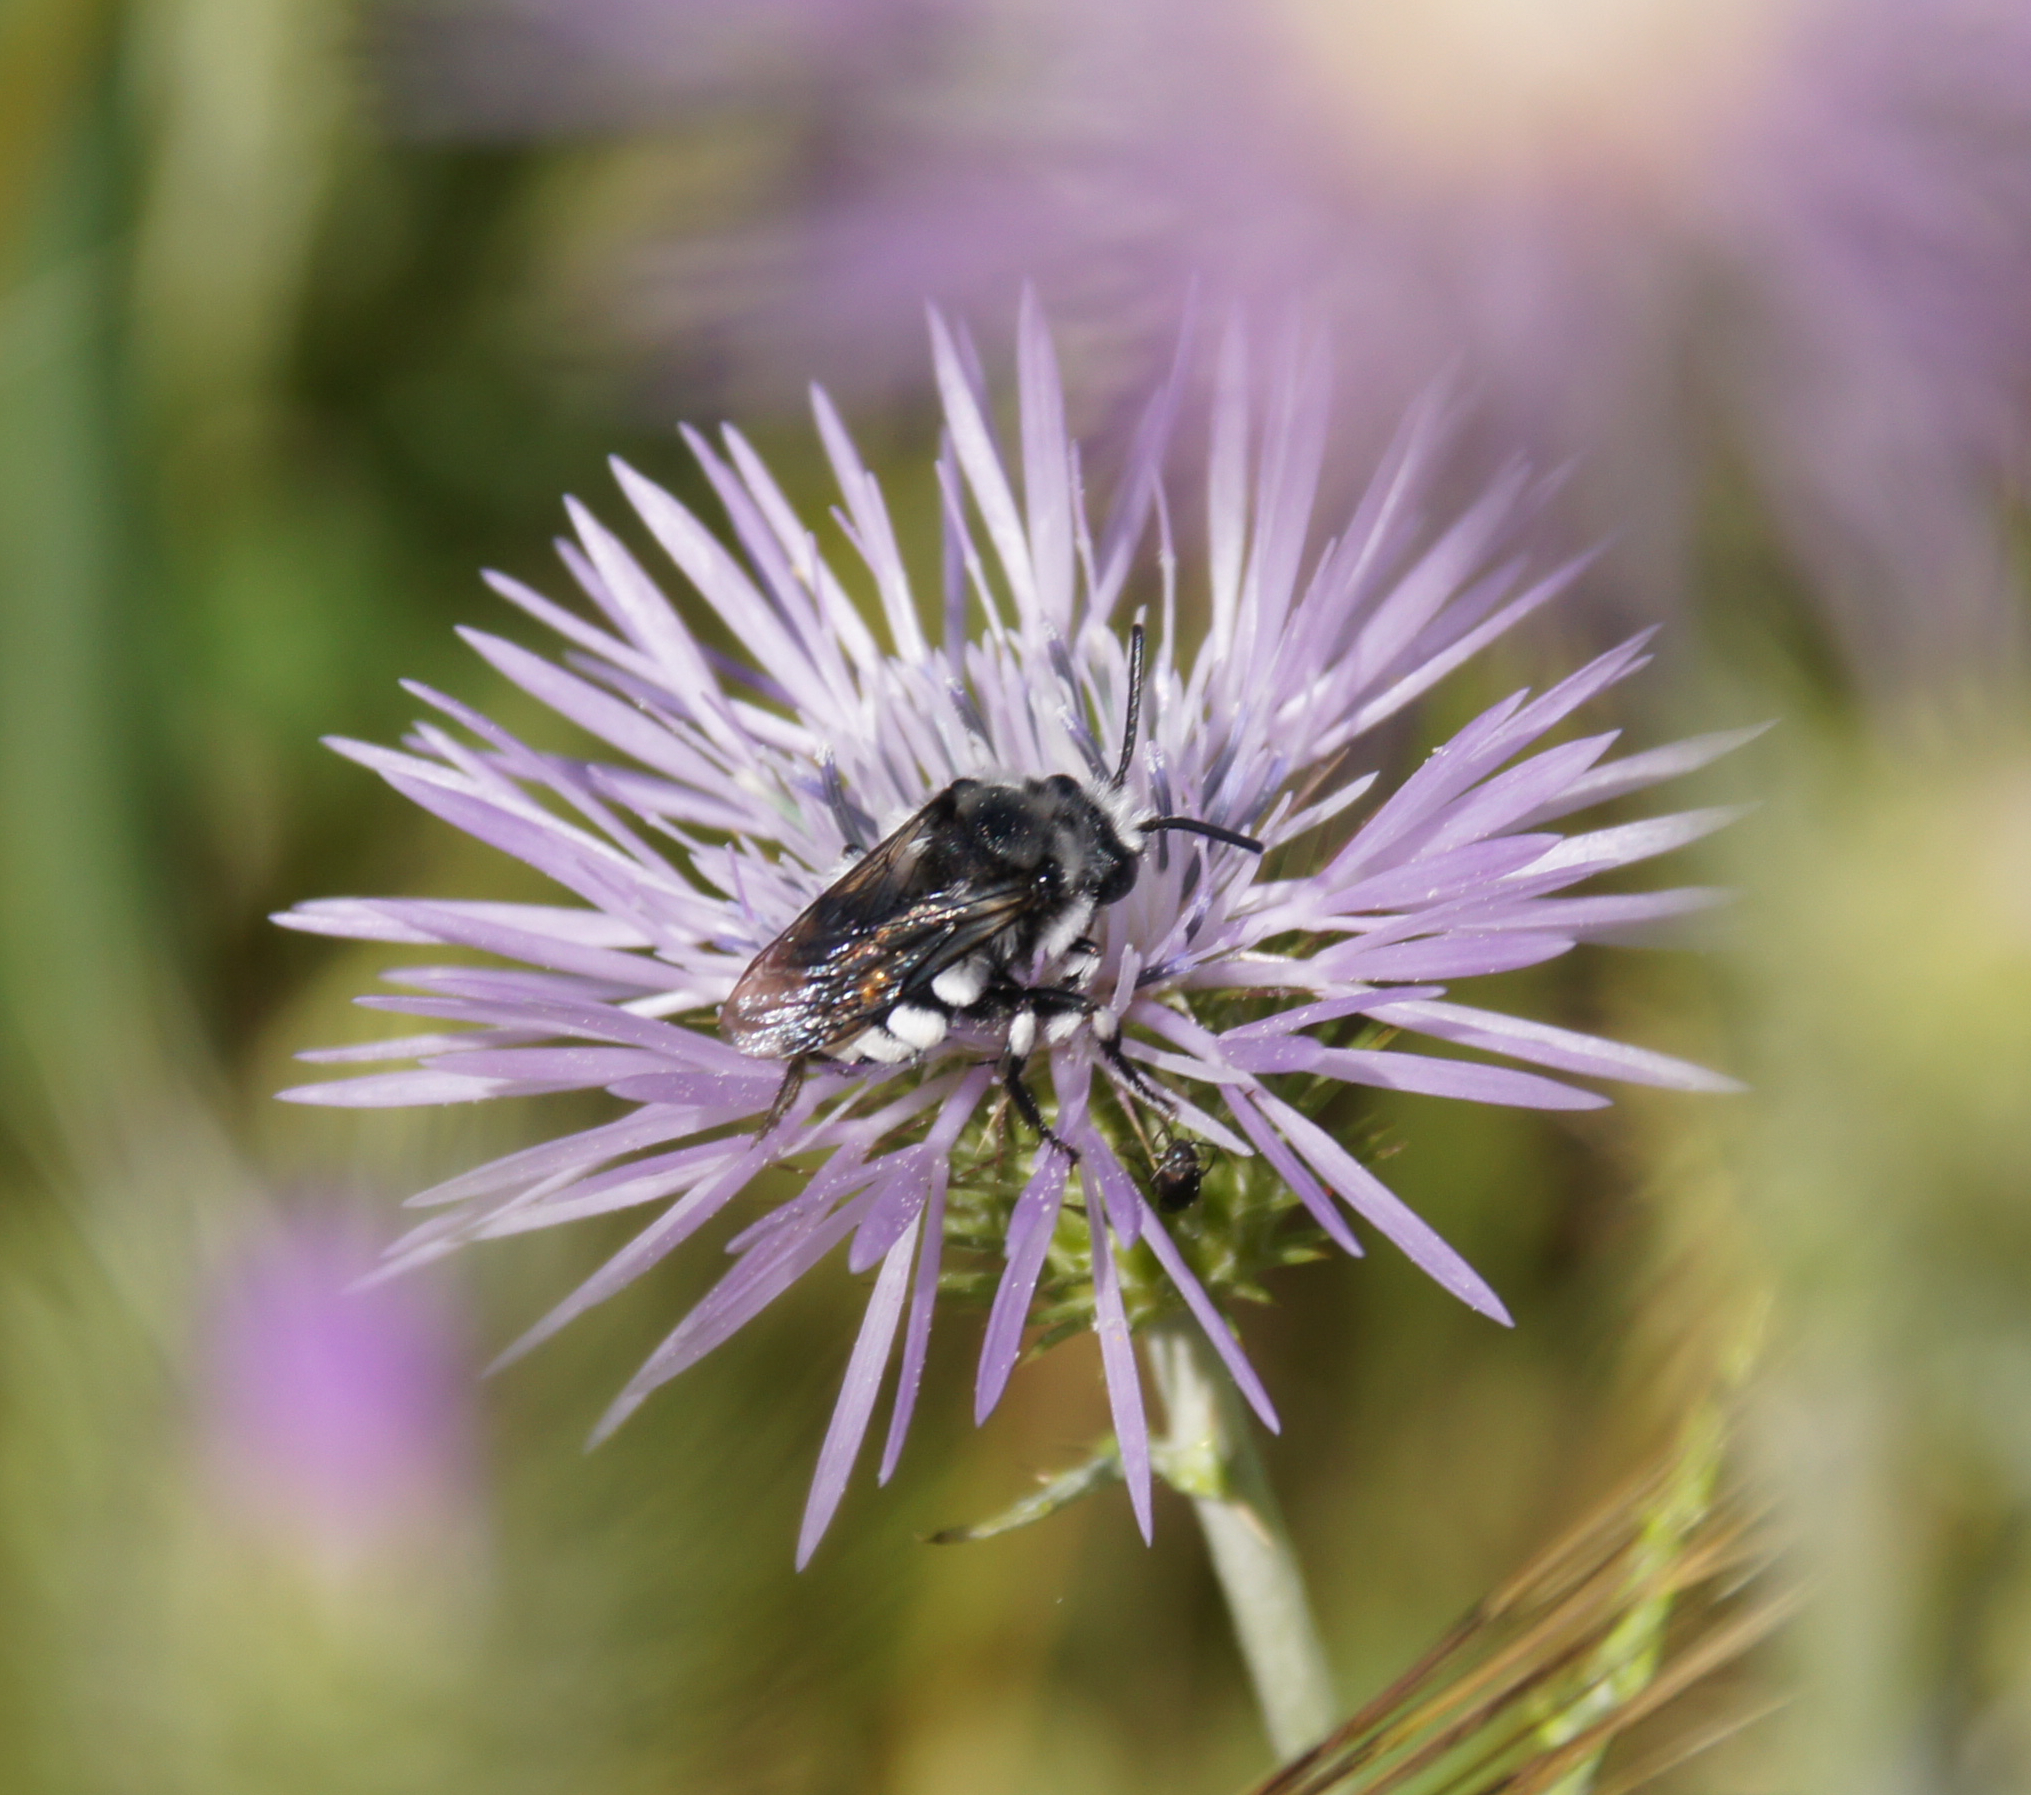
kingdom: Animalia
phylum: Arthropoda
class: Insecta
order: Hymenoptera
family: Apidae
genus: Melecta
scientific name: Melecta curvispina
